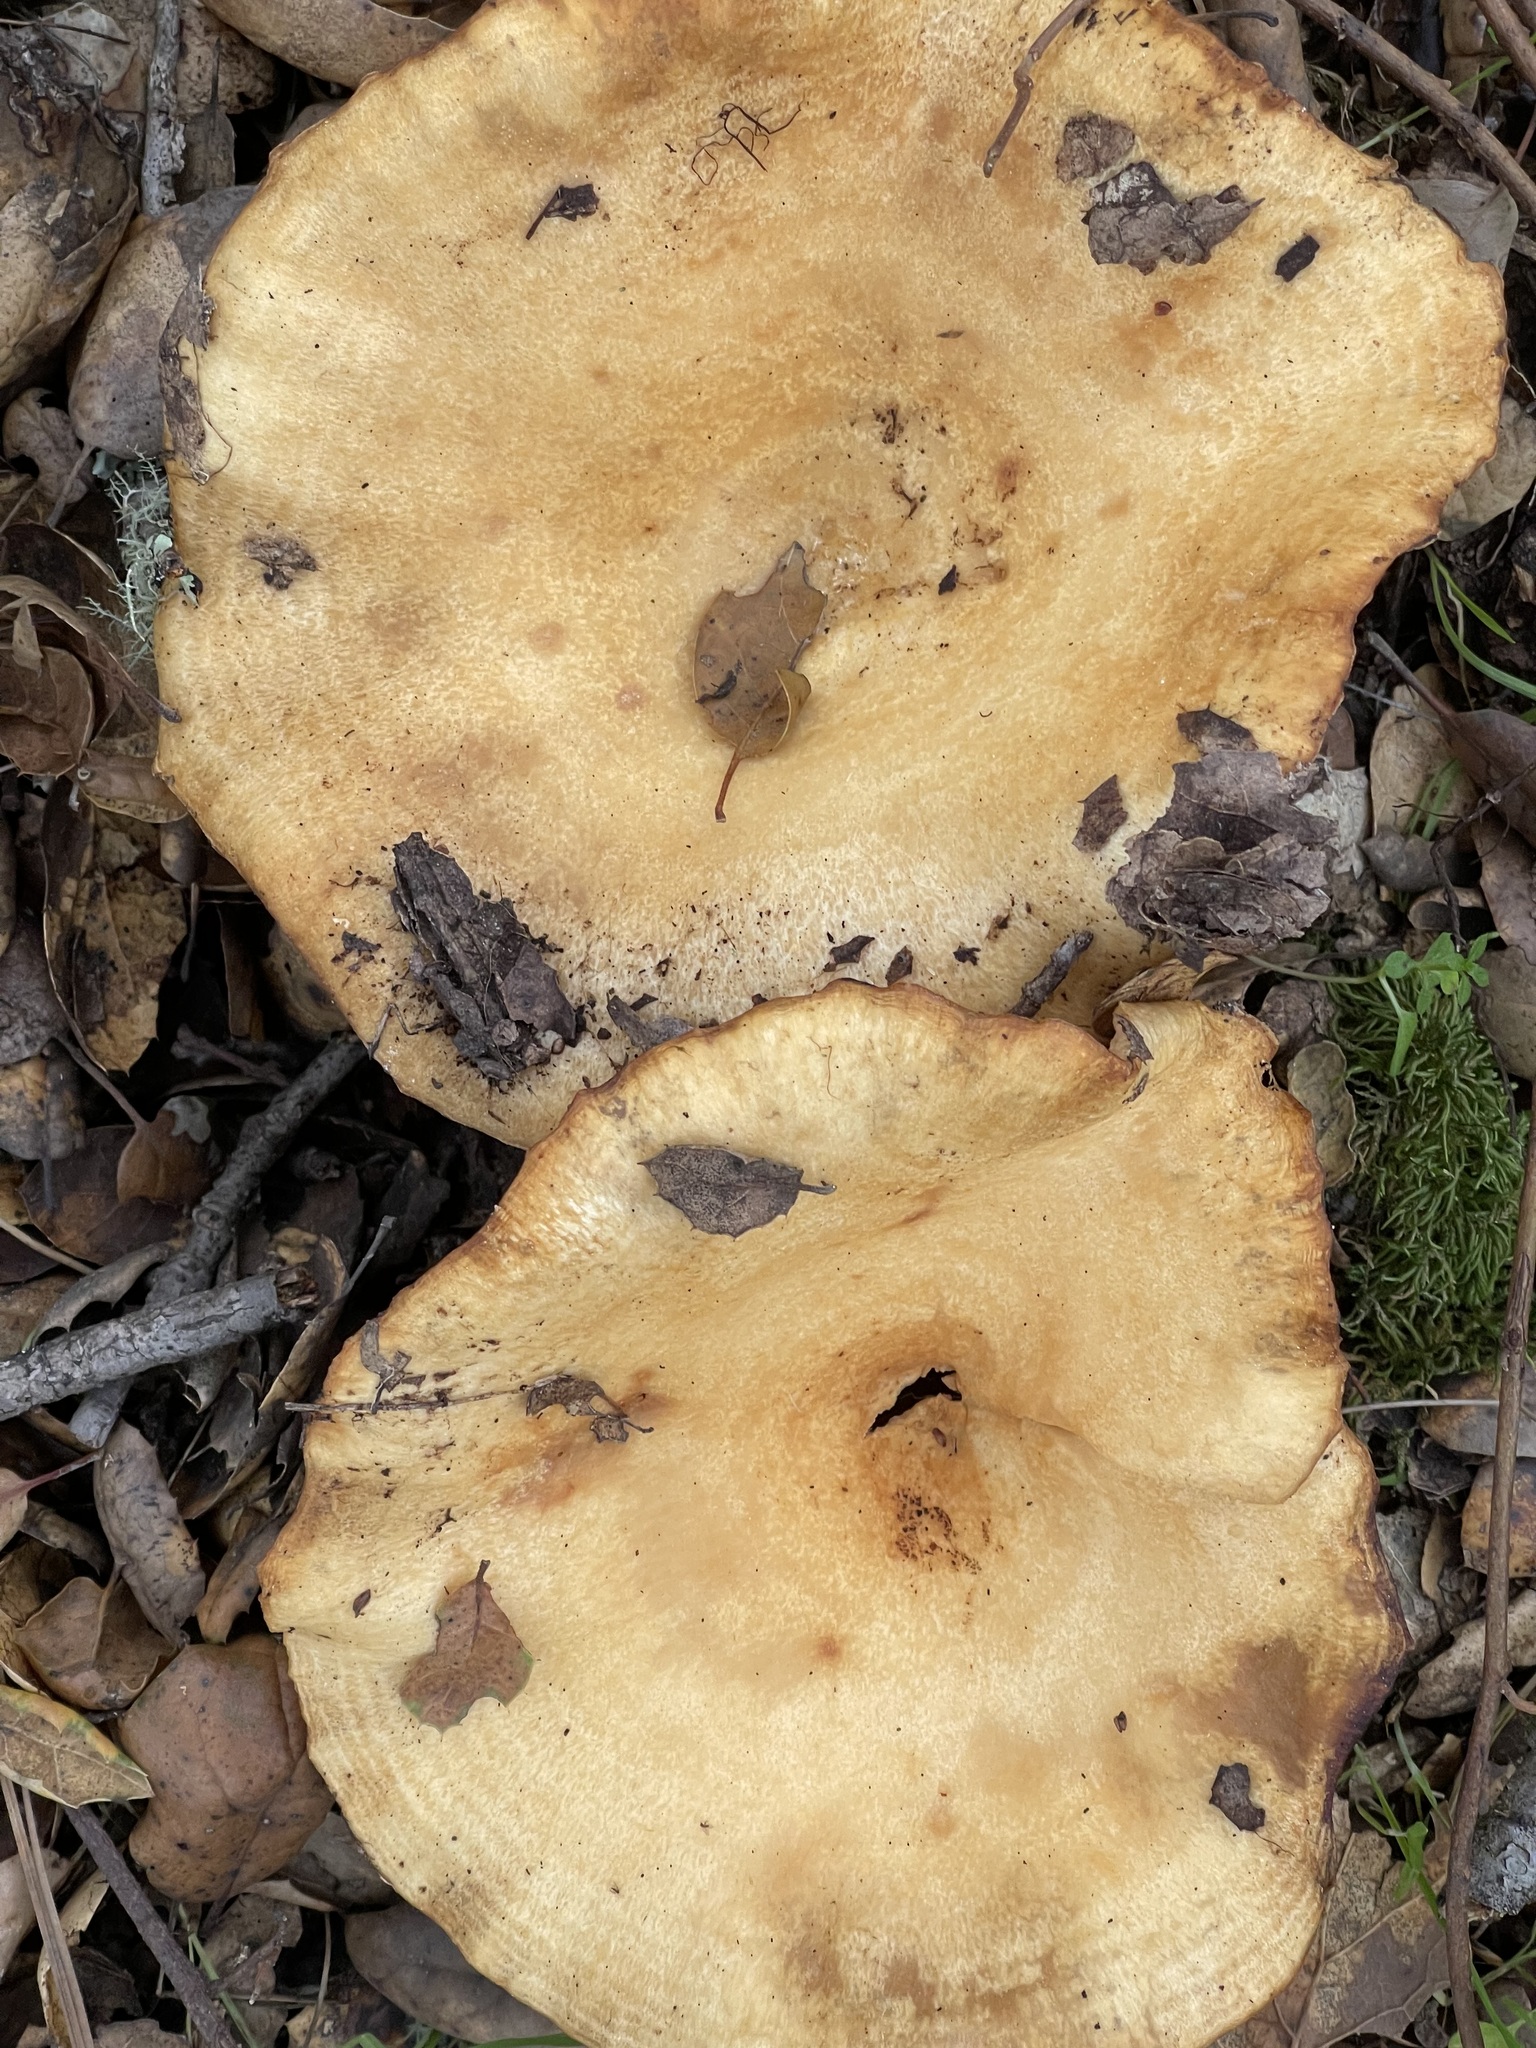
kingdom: Fungi
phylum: Basidiomycota
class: Agaricomycetes
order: Russulales
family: Russulaceae
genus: Lactarius
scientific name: Lactarius alnicola
